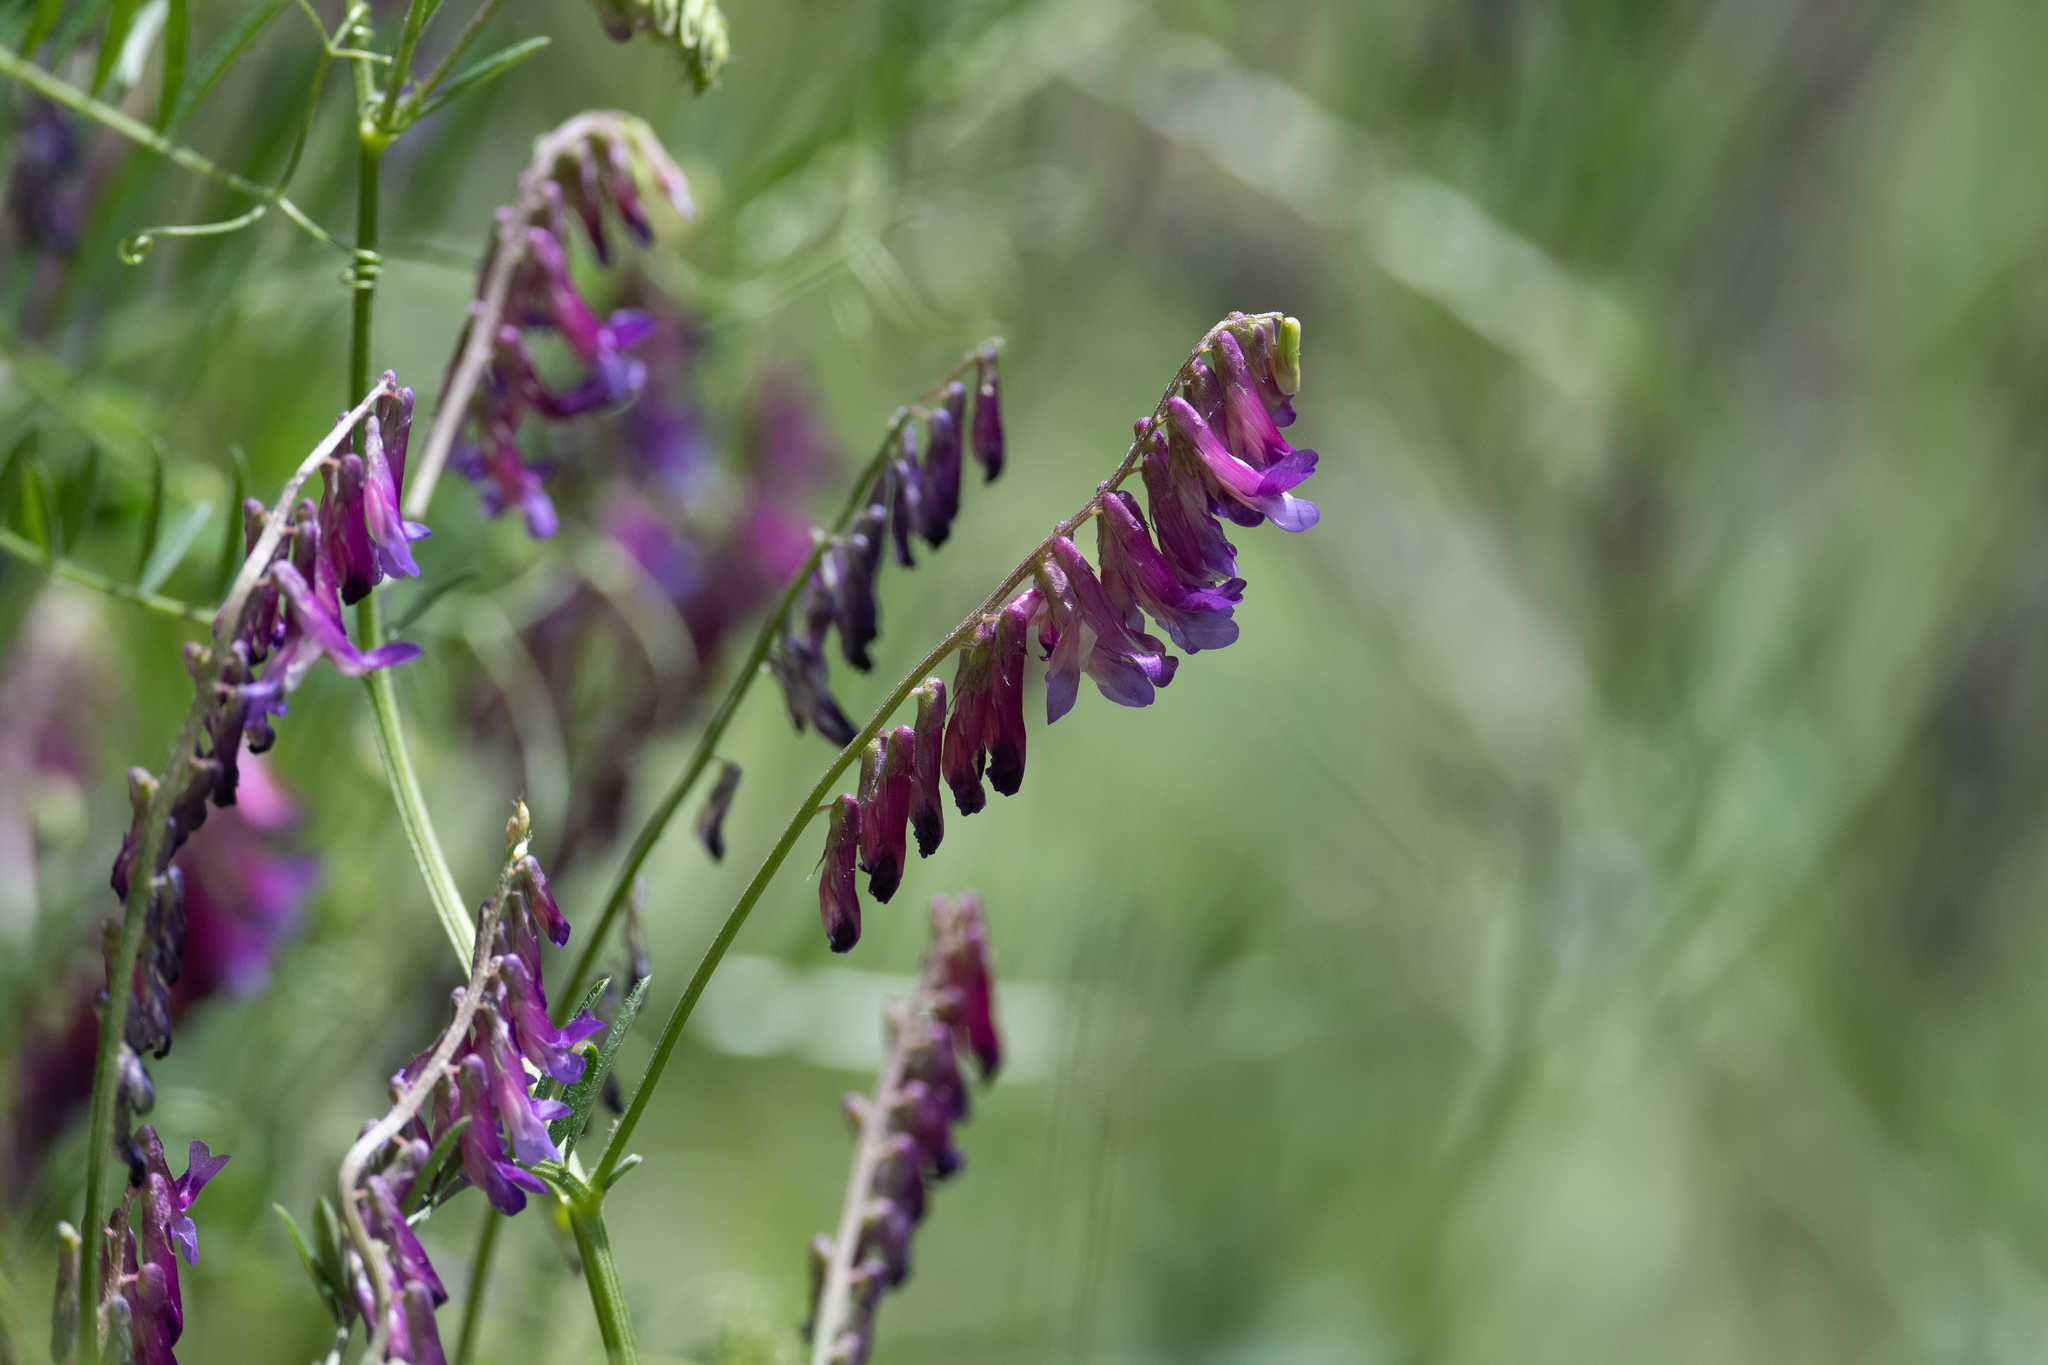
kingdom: Plantae
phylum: Tracheophyta
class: Magnoliopsida
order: Fabales
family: Fabaceae
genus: Vicia
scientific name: Vicia villosa
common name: Fodder vetch
